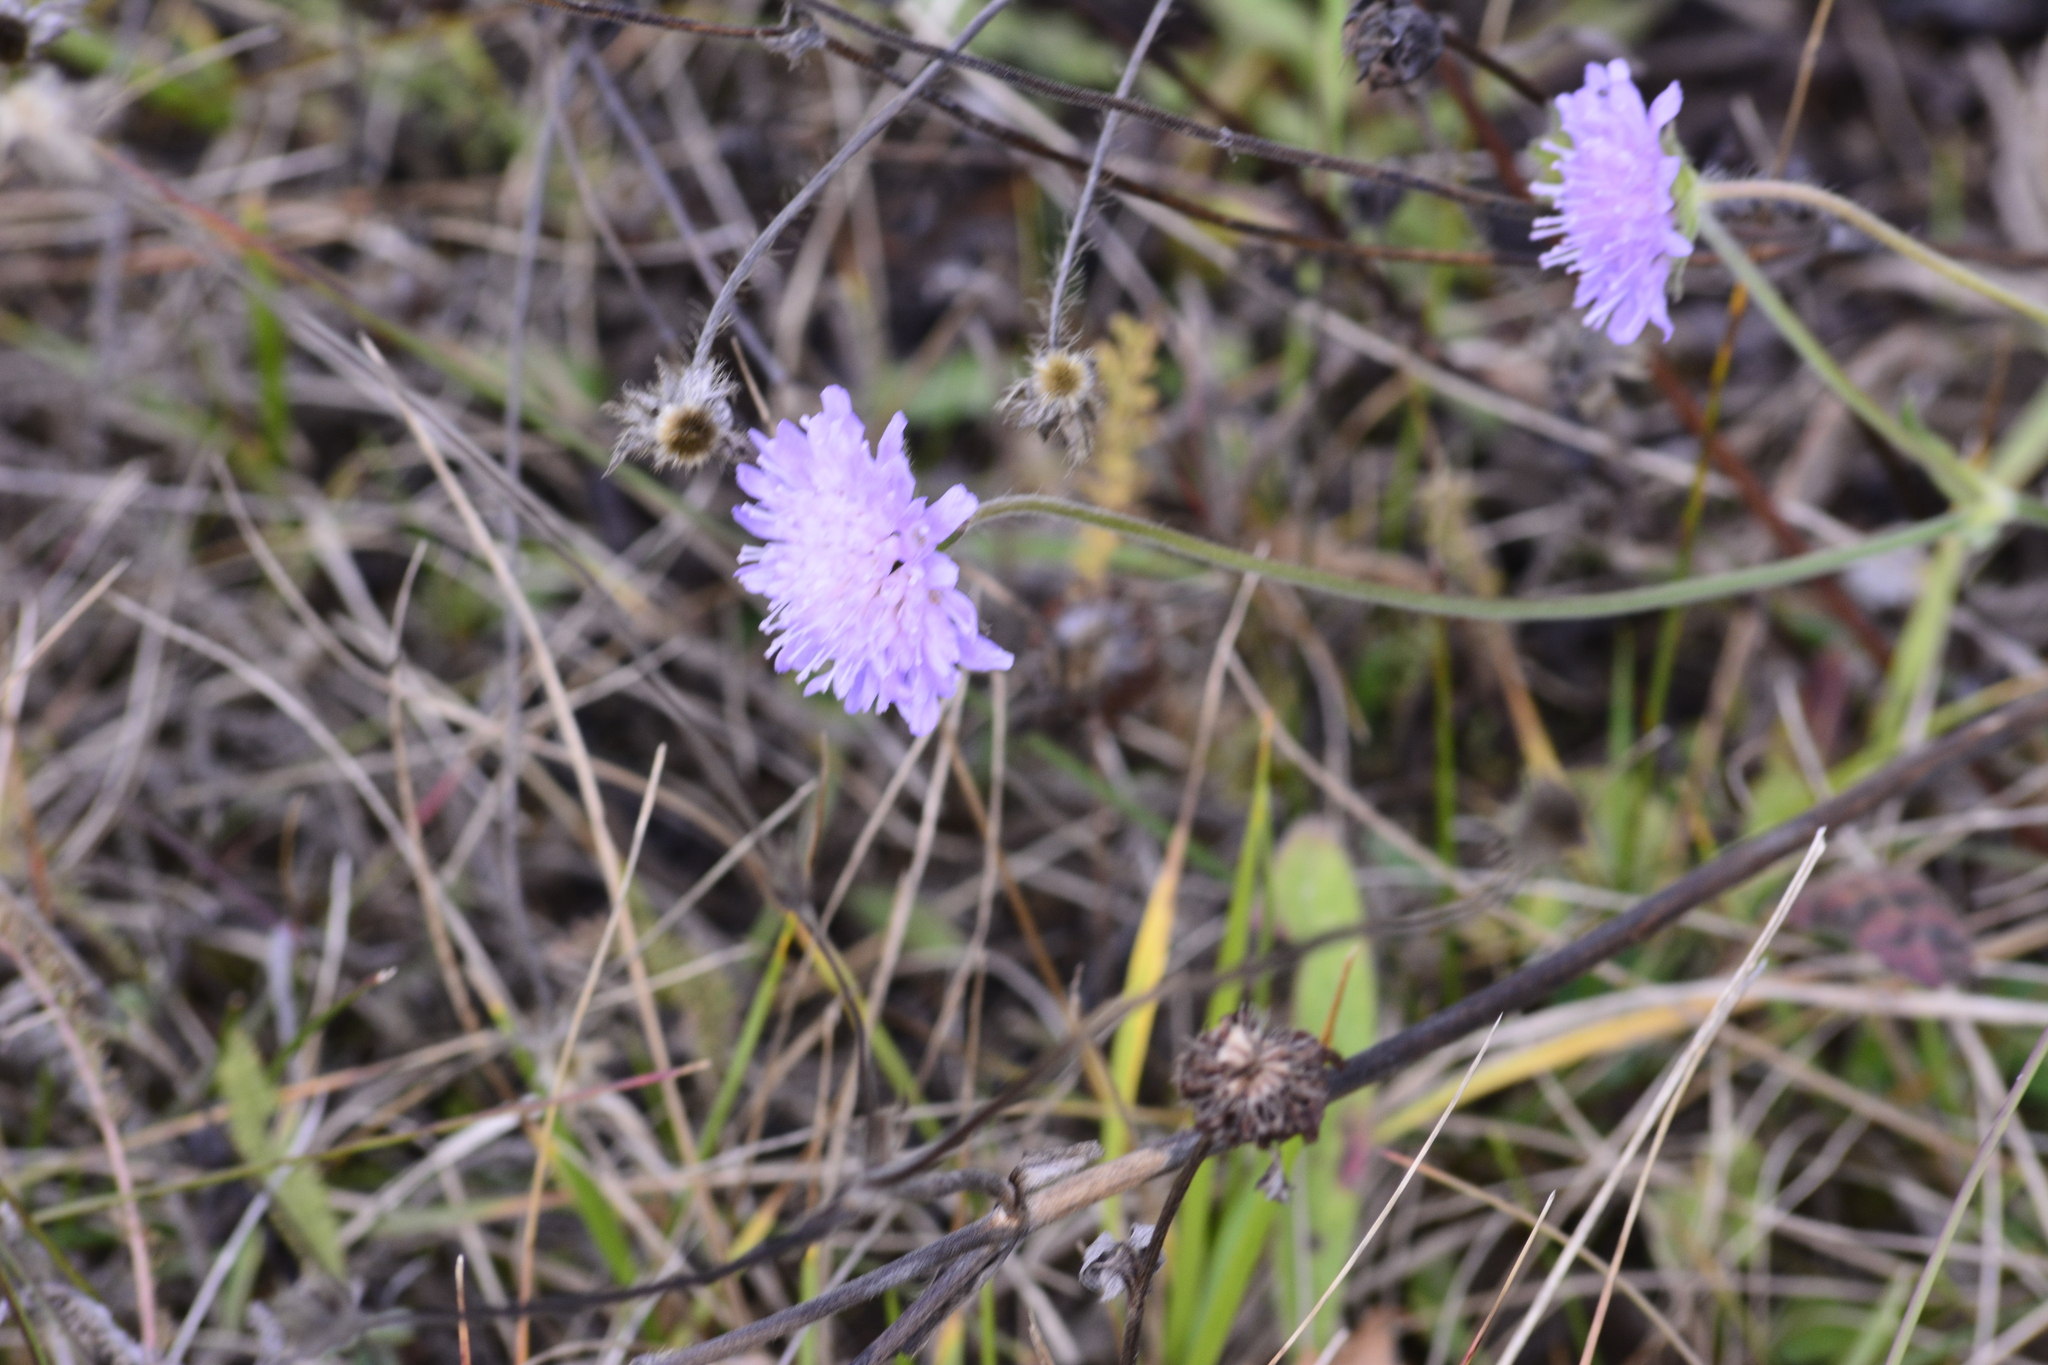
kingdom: Plantae
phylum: Tracheophyta
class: Magnoliopsida
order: Dipsacales
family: Caprifoliaceae
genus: Knautia
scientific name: Knautia arvensis
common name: Field scabiosa
